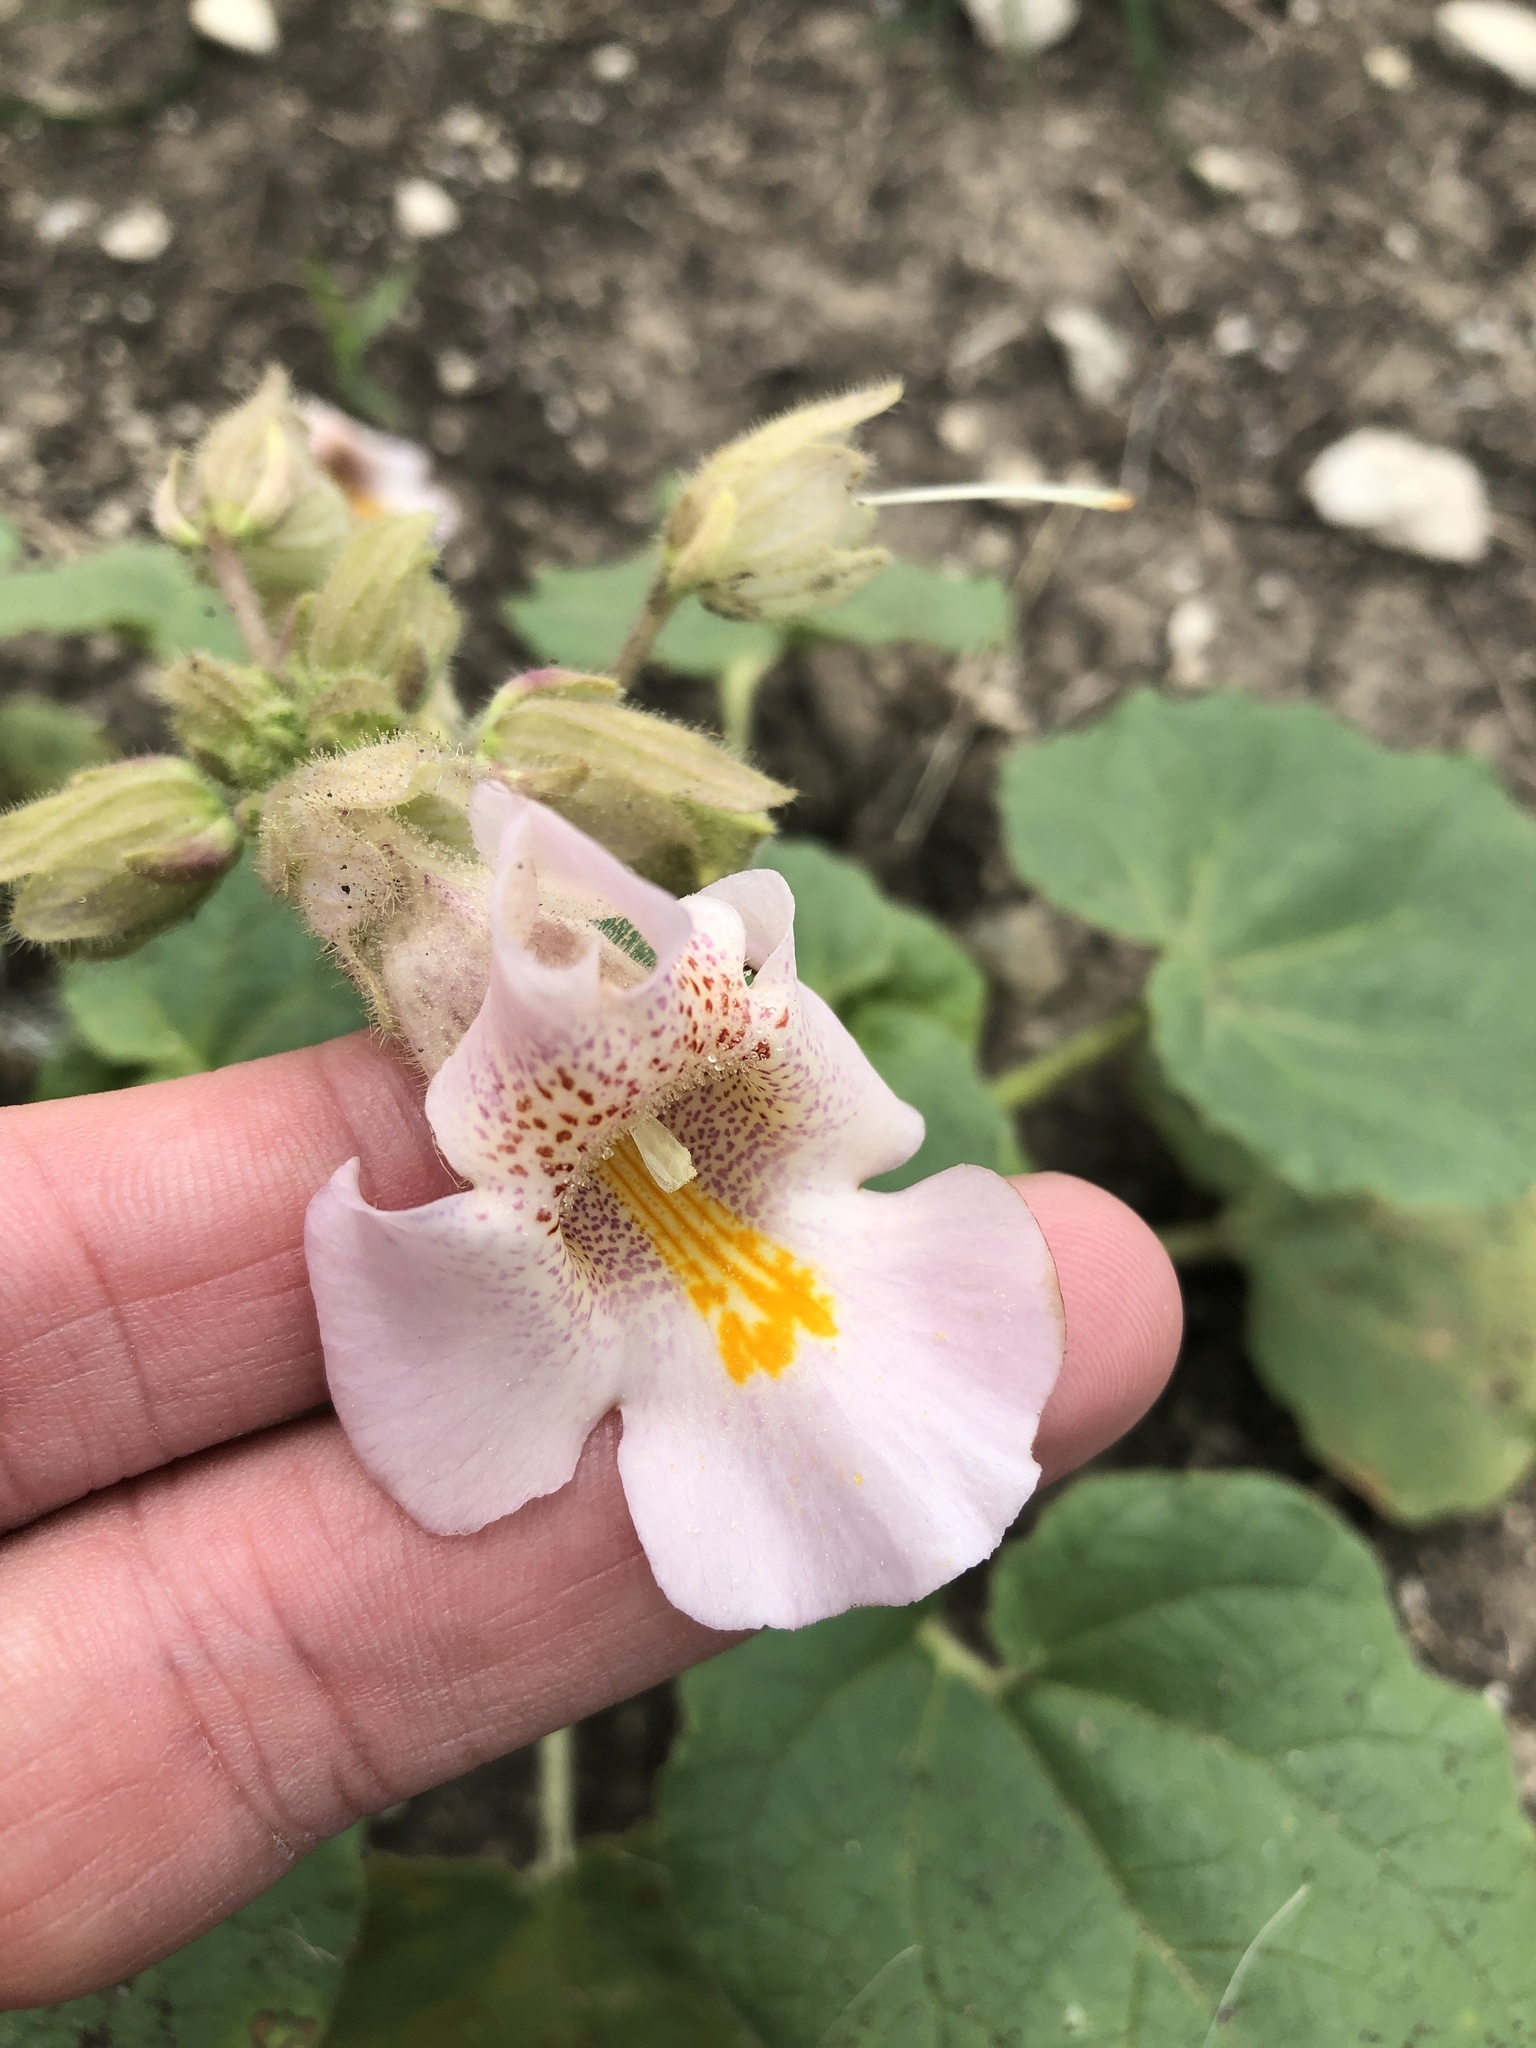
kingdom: Plantae
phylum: Tracheophyta
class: Magnoliopsida
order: Lamiales
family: Martyniaceae
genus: Proboscidea
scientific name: Proboscidea louisianica
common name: Elephant tusks
